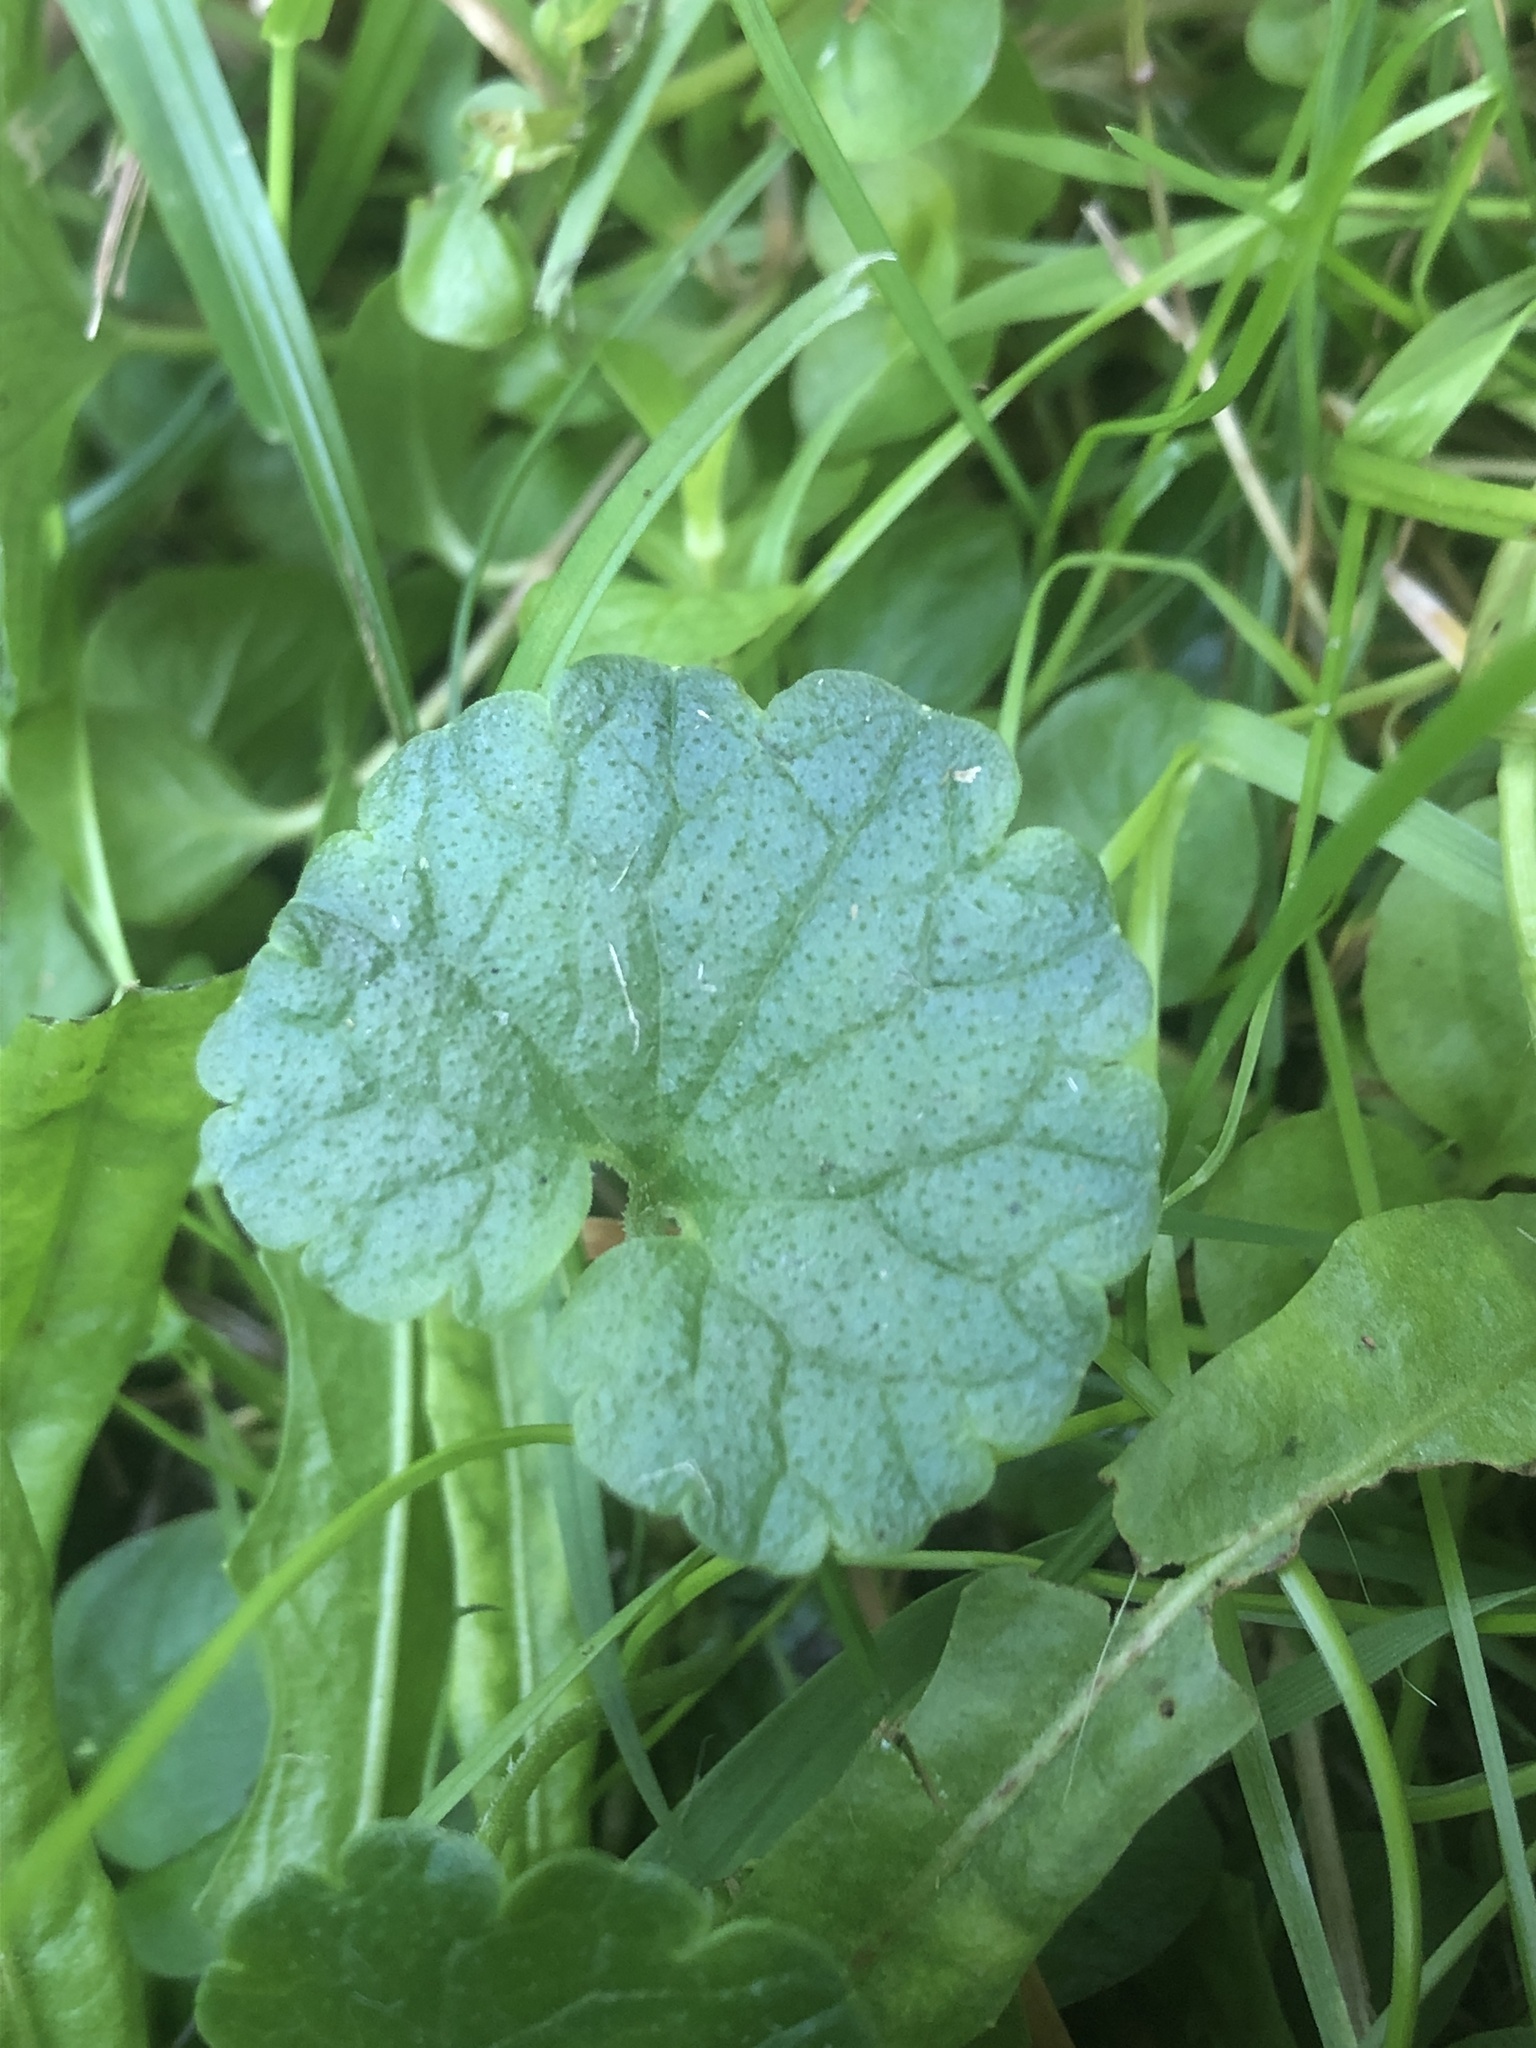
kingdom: Plantae
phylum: Tracheophyta
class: Magnoliopsida
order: Lamiales
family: Lamiaceae
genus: Glechoma
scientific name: Glechoma hederacea
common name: Ground ivy
